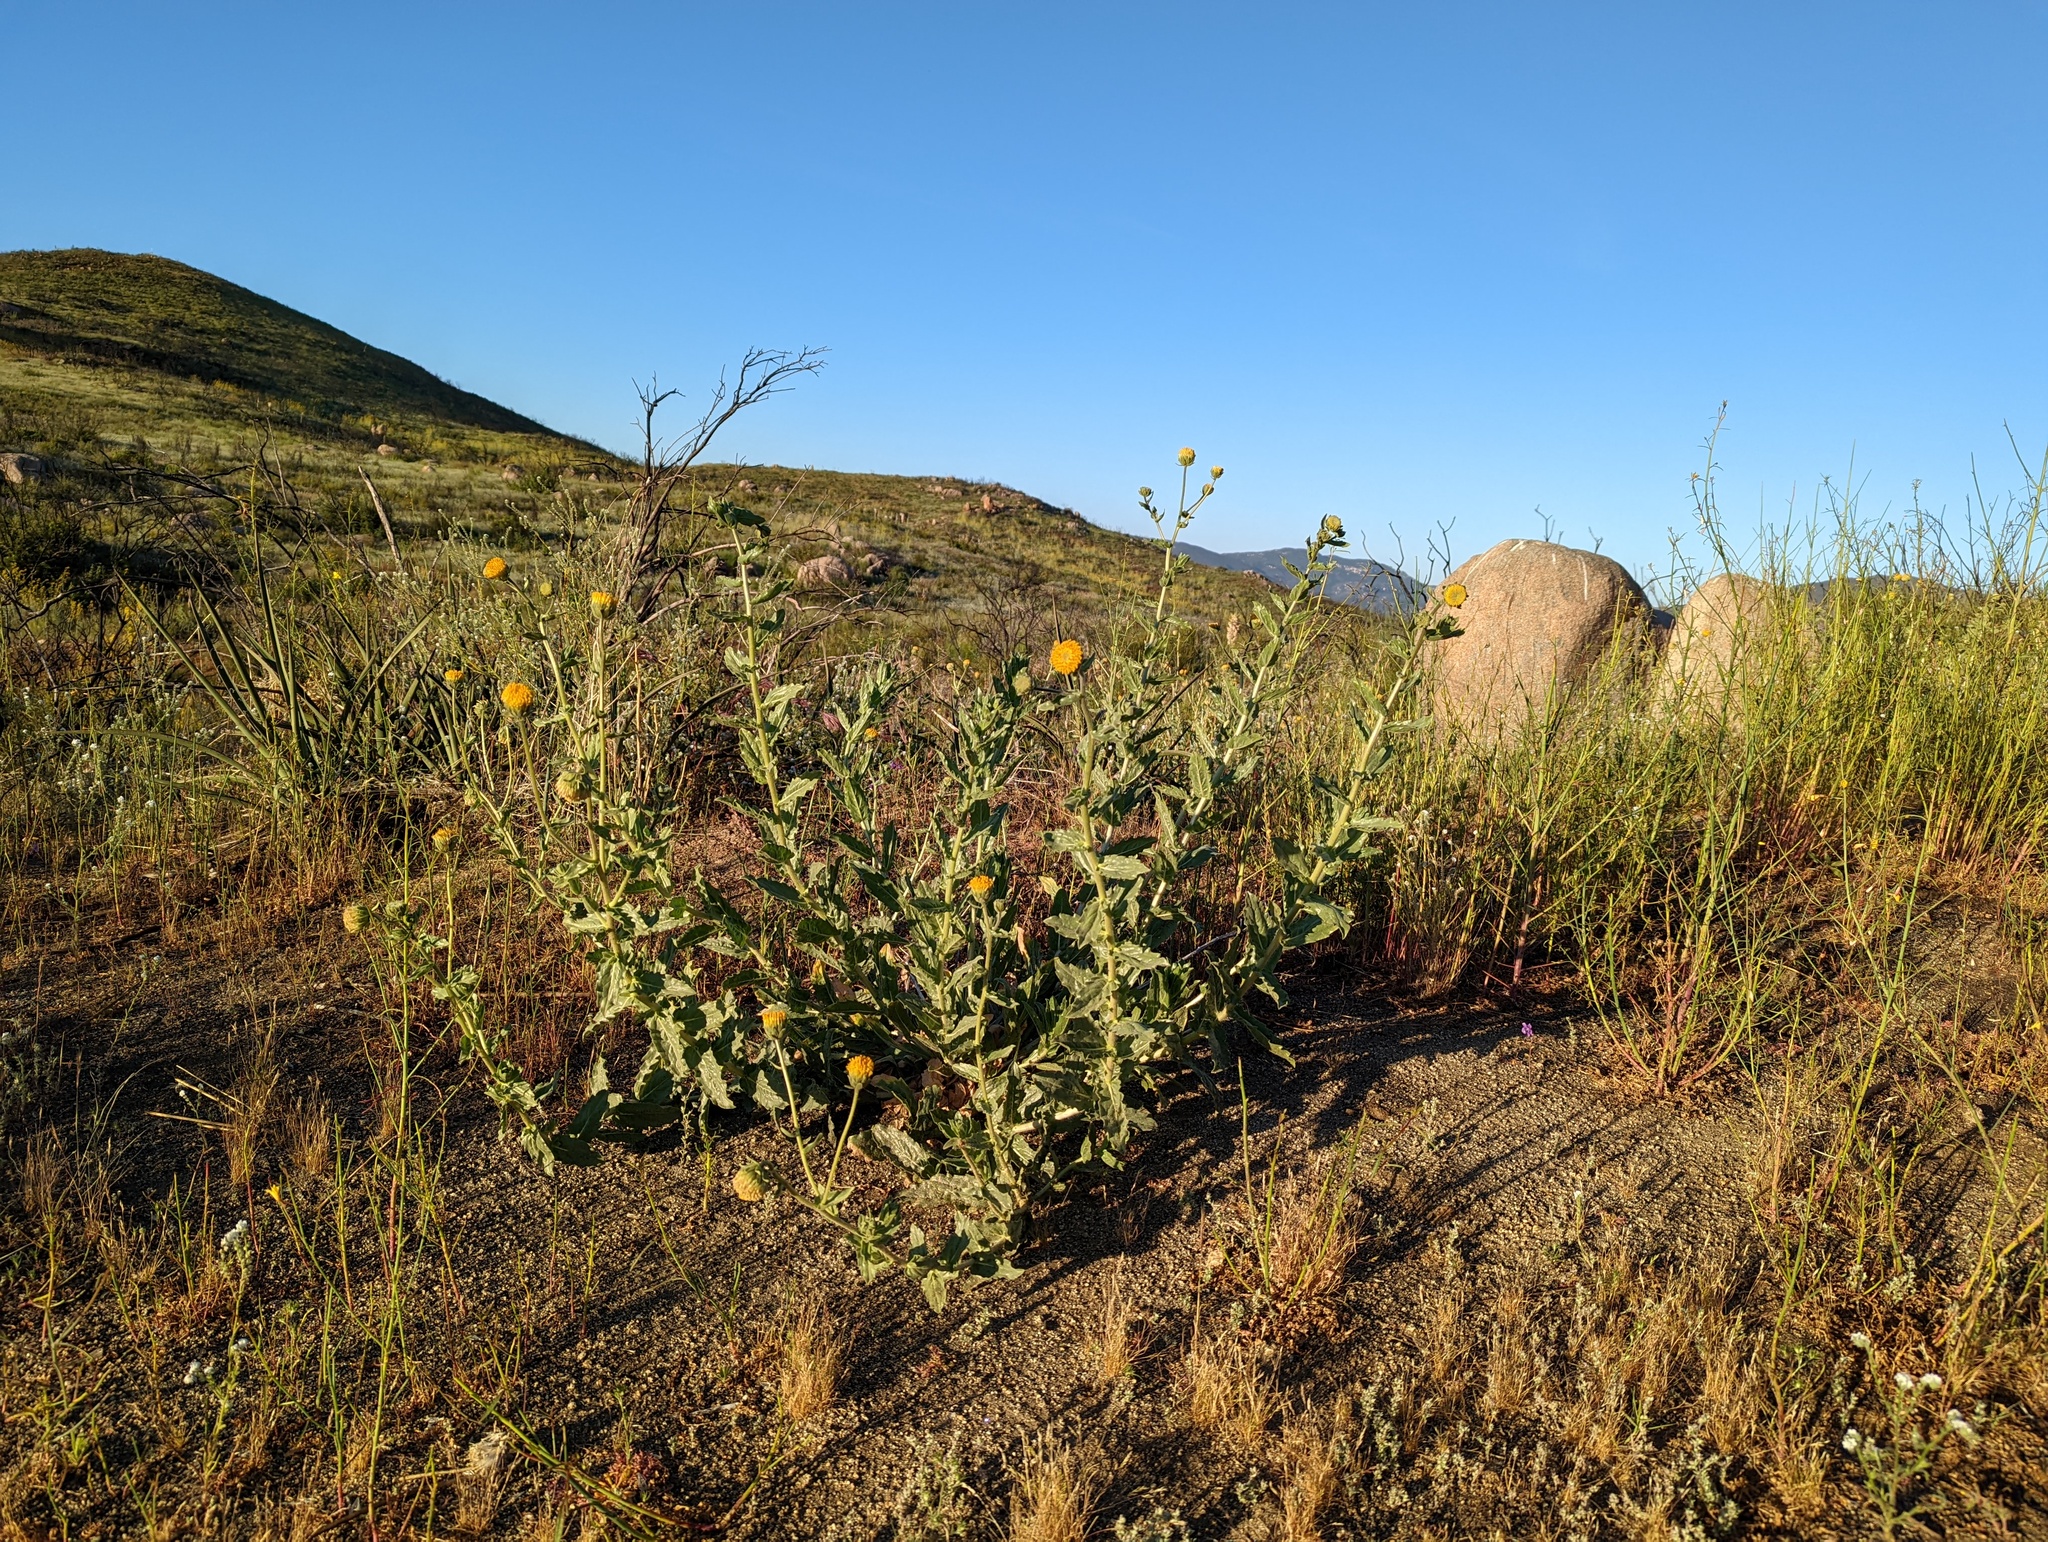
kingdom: Plantae
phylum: Tracheophyta
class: Magnoliopsida
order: Asterales
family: Asteraceae
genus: Geraea
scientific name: Geraea viscida
